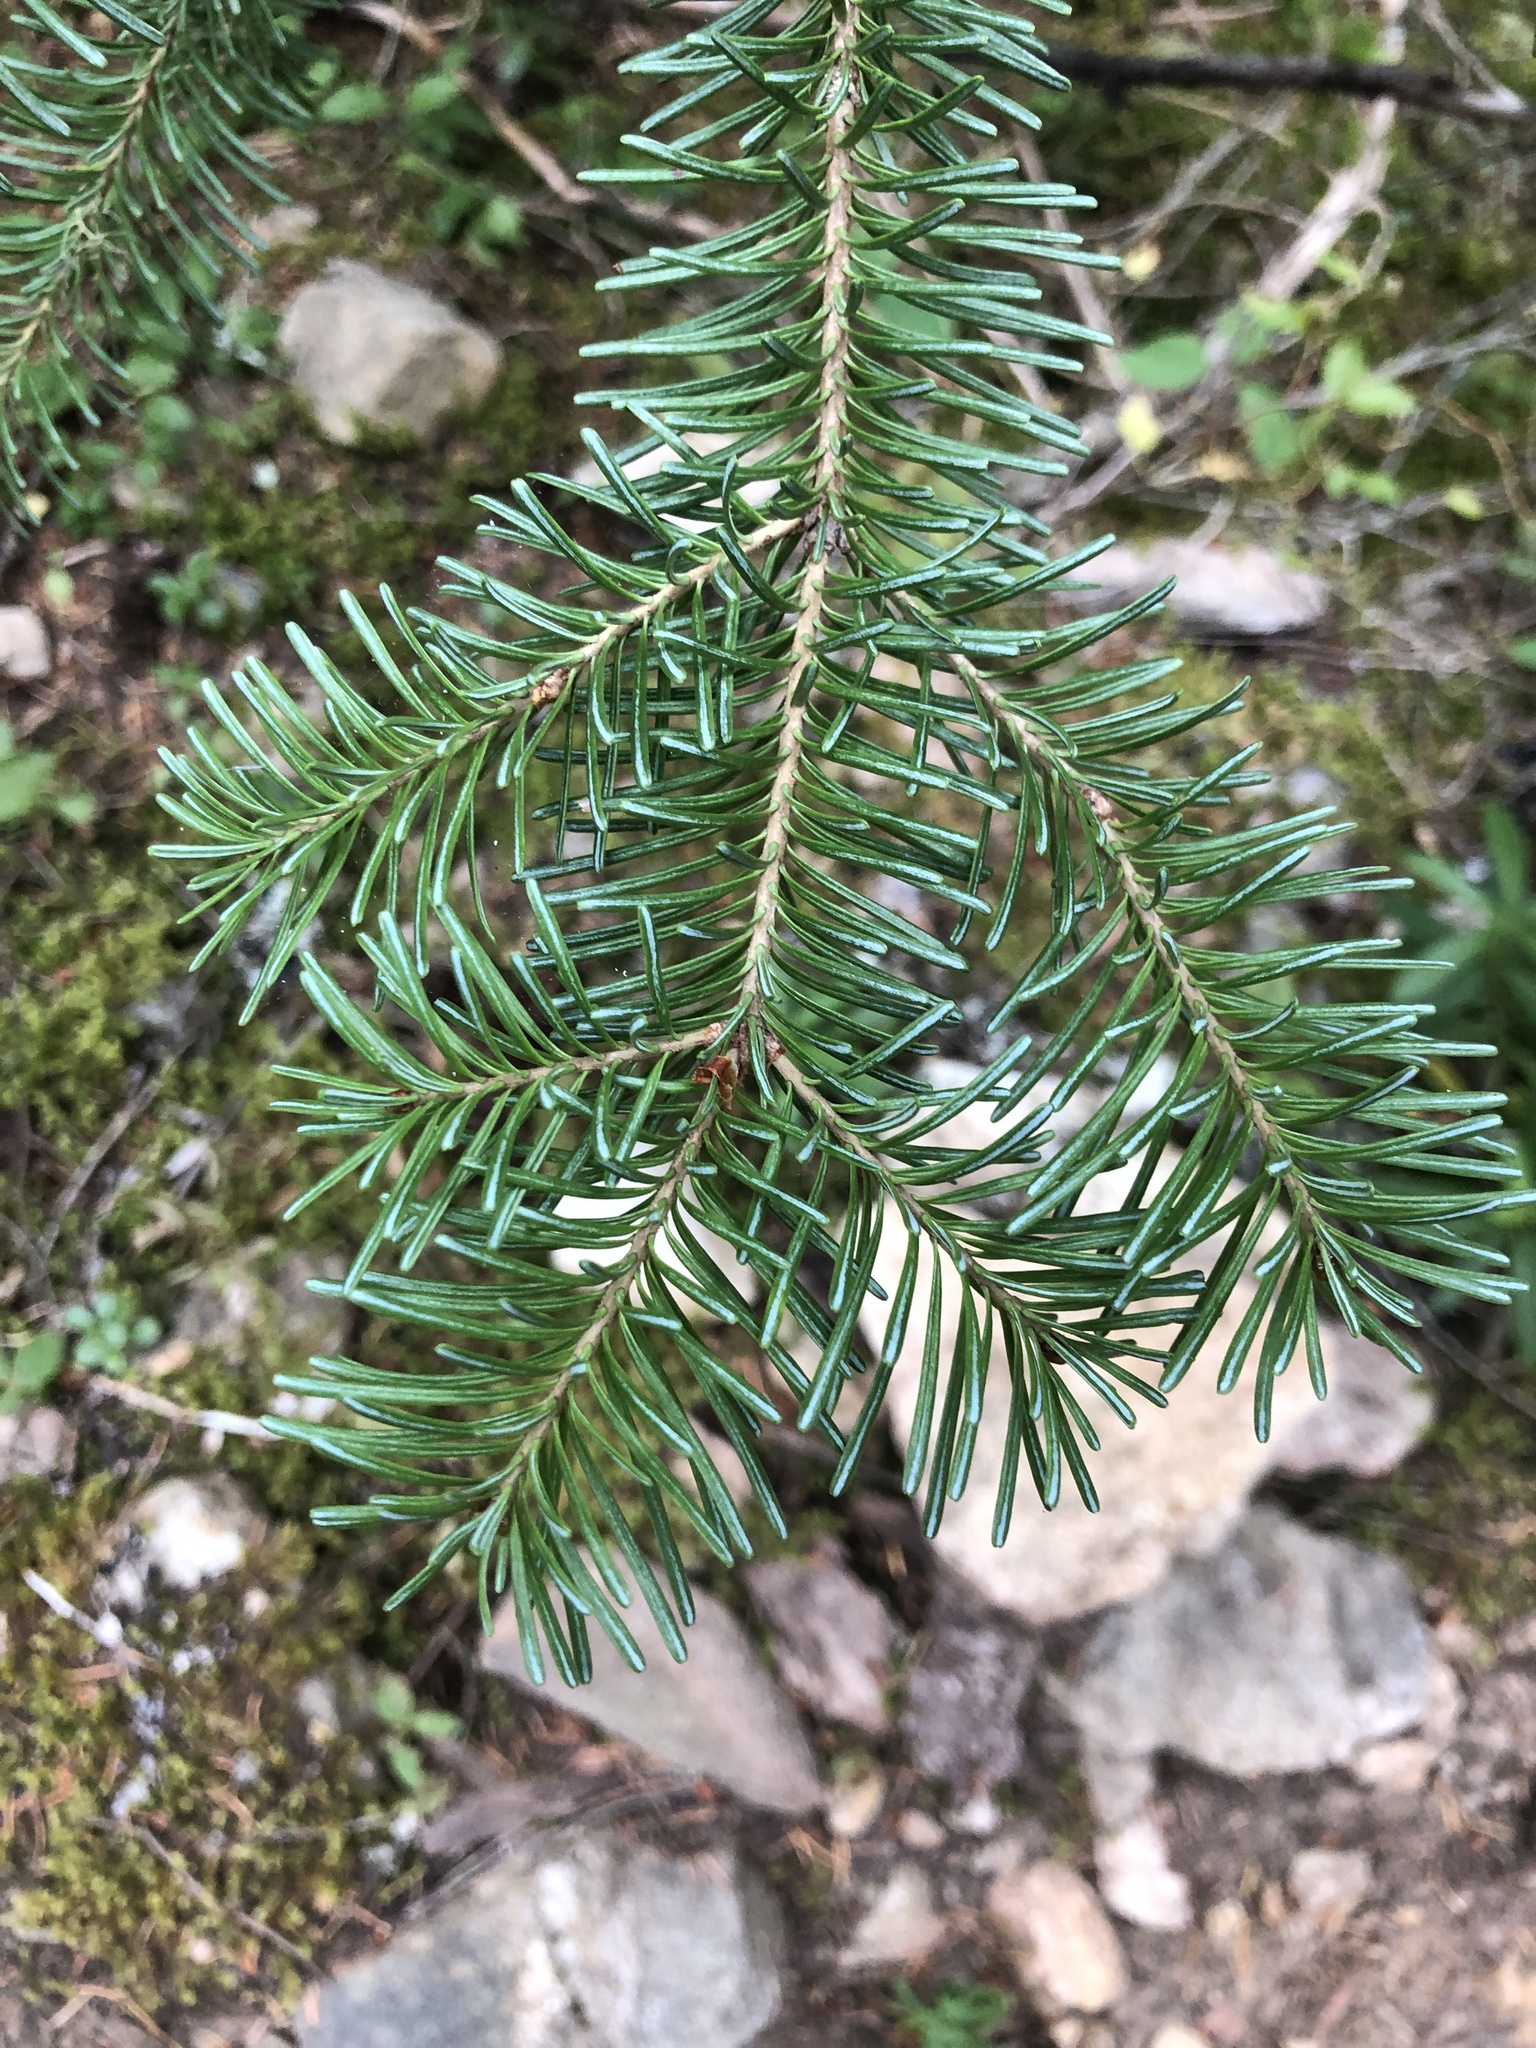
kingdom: Plantae
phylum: Tracheophyta
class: Pinopsida
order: Pinales
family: Pinaceae
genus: Abies
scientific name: Abies lasiocarpa
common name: Subalpine fir
